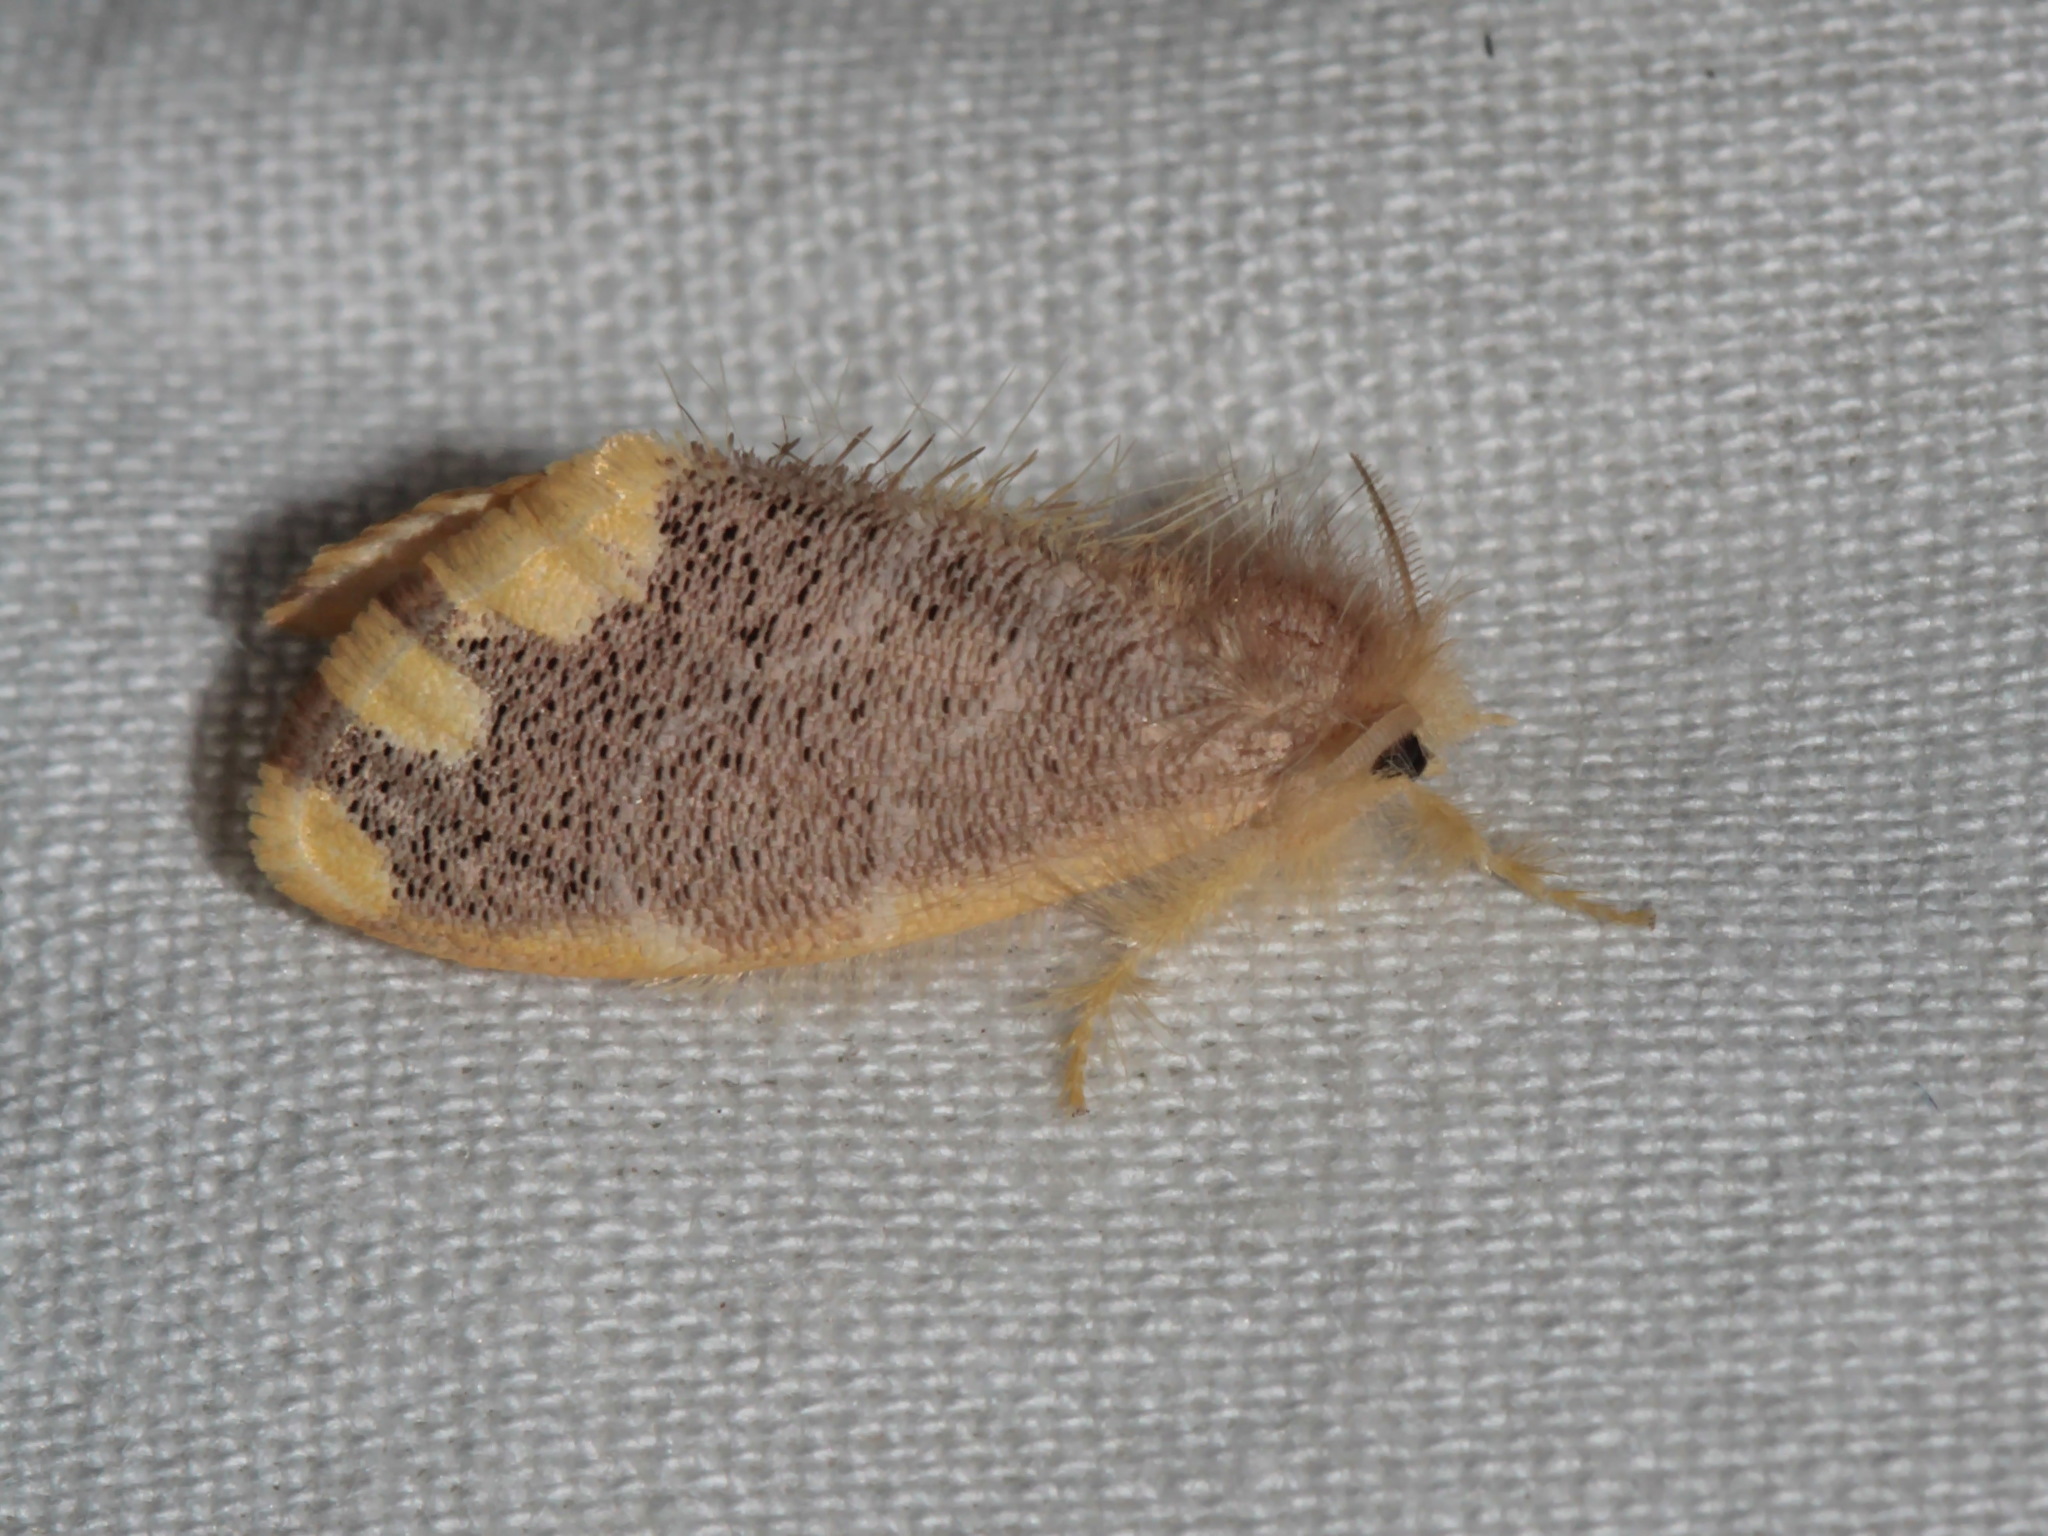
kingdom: Animalia
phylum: Arthropoda
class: Insecta
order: Lepidoptera
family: Erebidae
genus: Orvasca
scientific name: Orvasca subnotata
